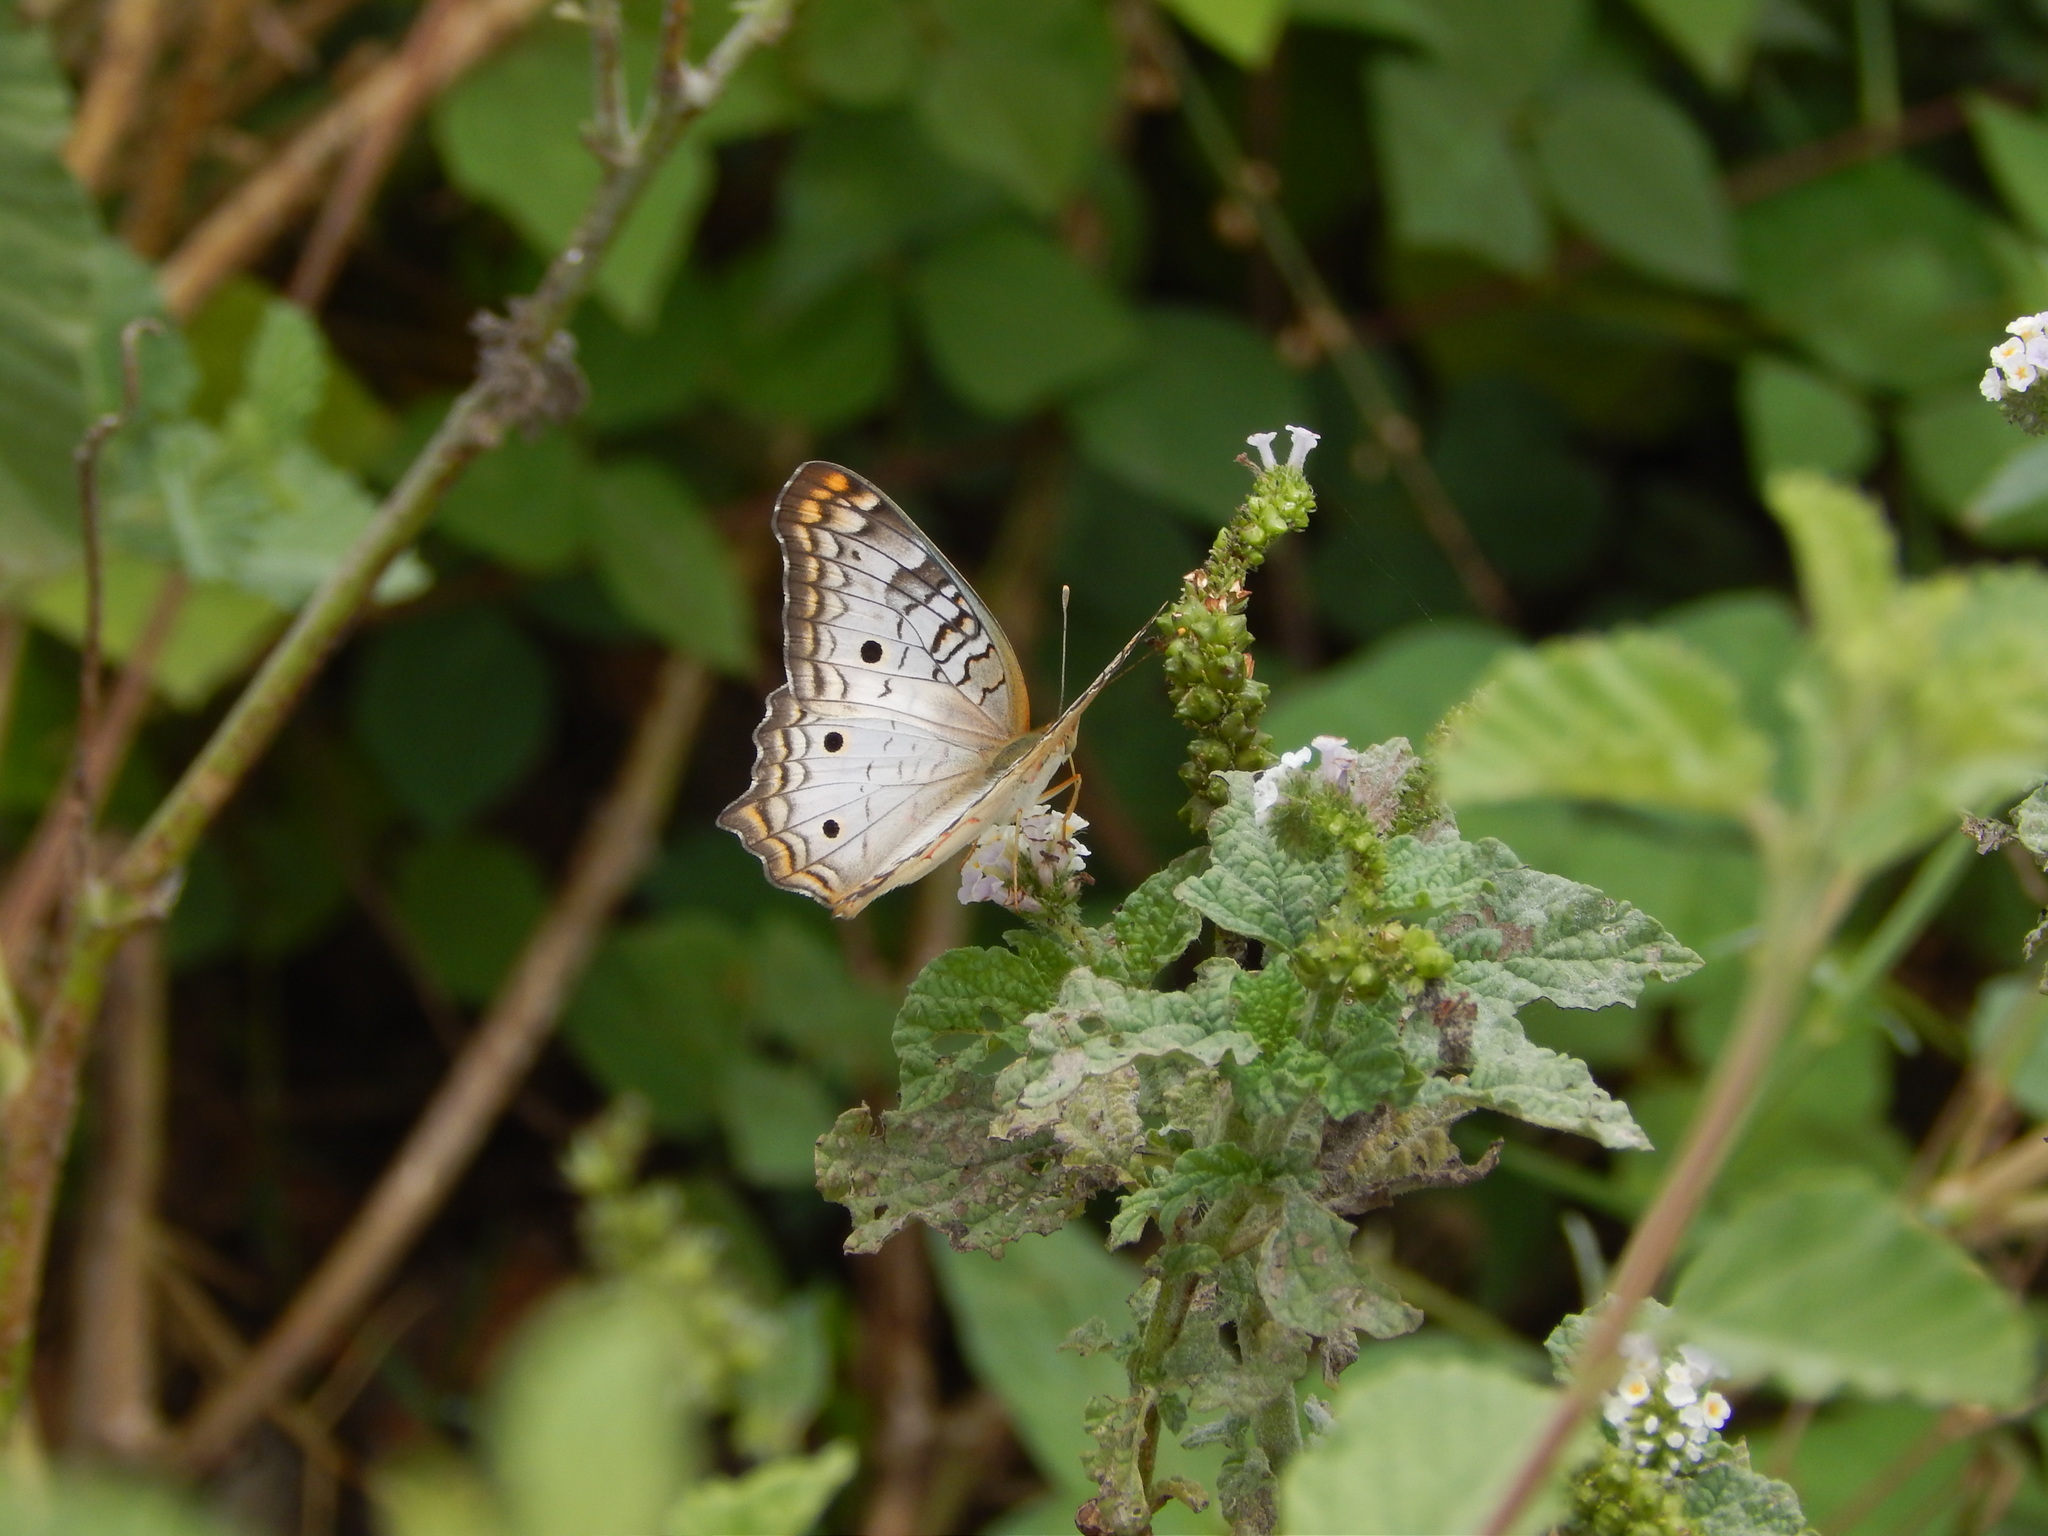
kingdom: Animalia
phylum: Arthropoda
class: Insecta
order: Lepidoptera
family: Nymphalidae
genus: Anartia
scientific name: Anartia jatrophae
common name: White peacock
